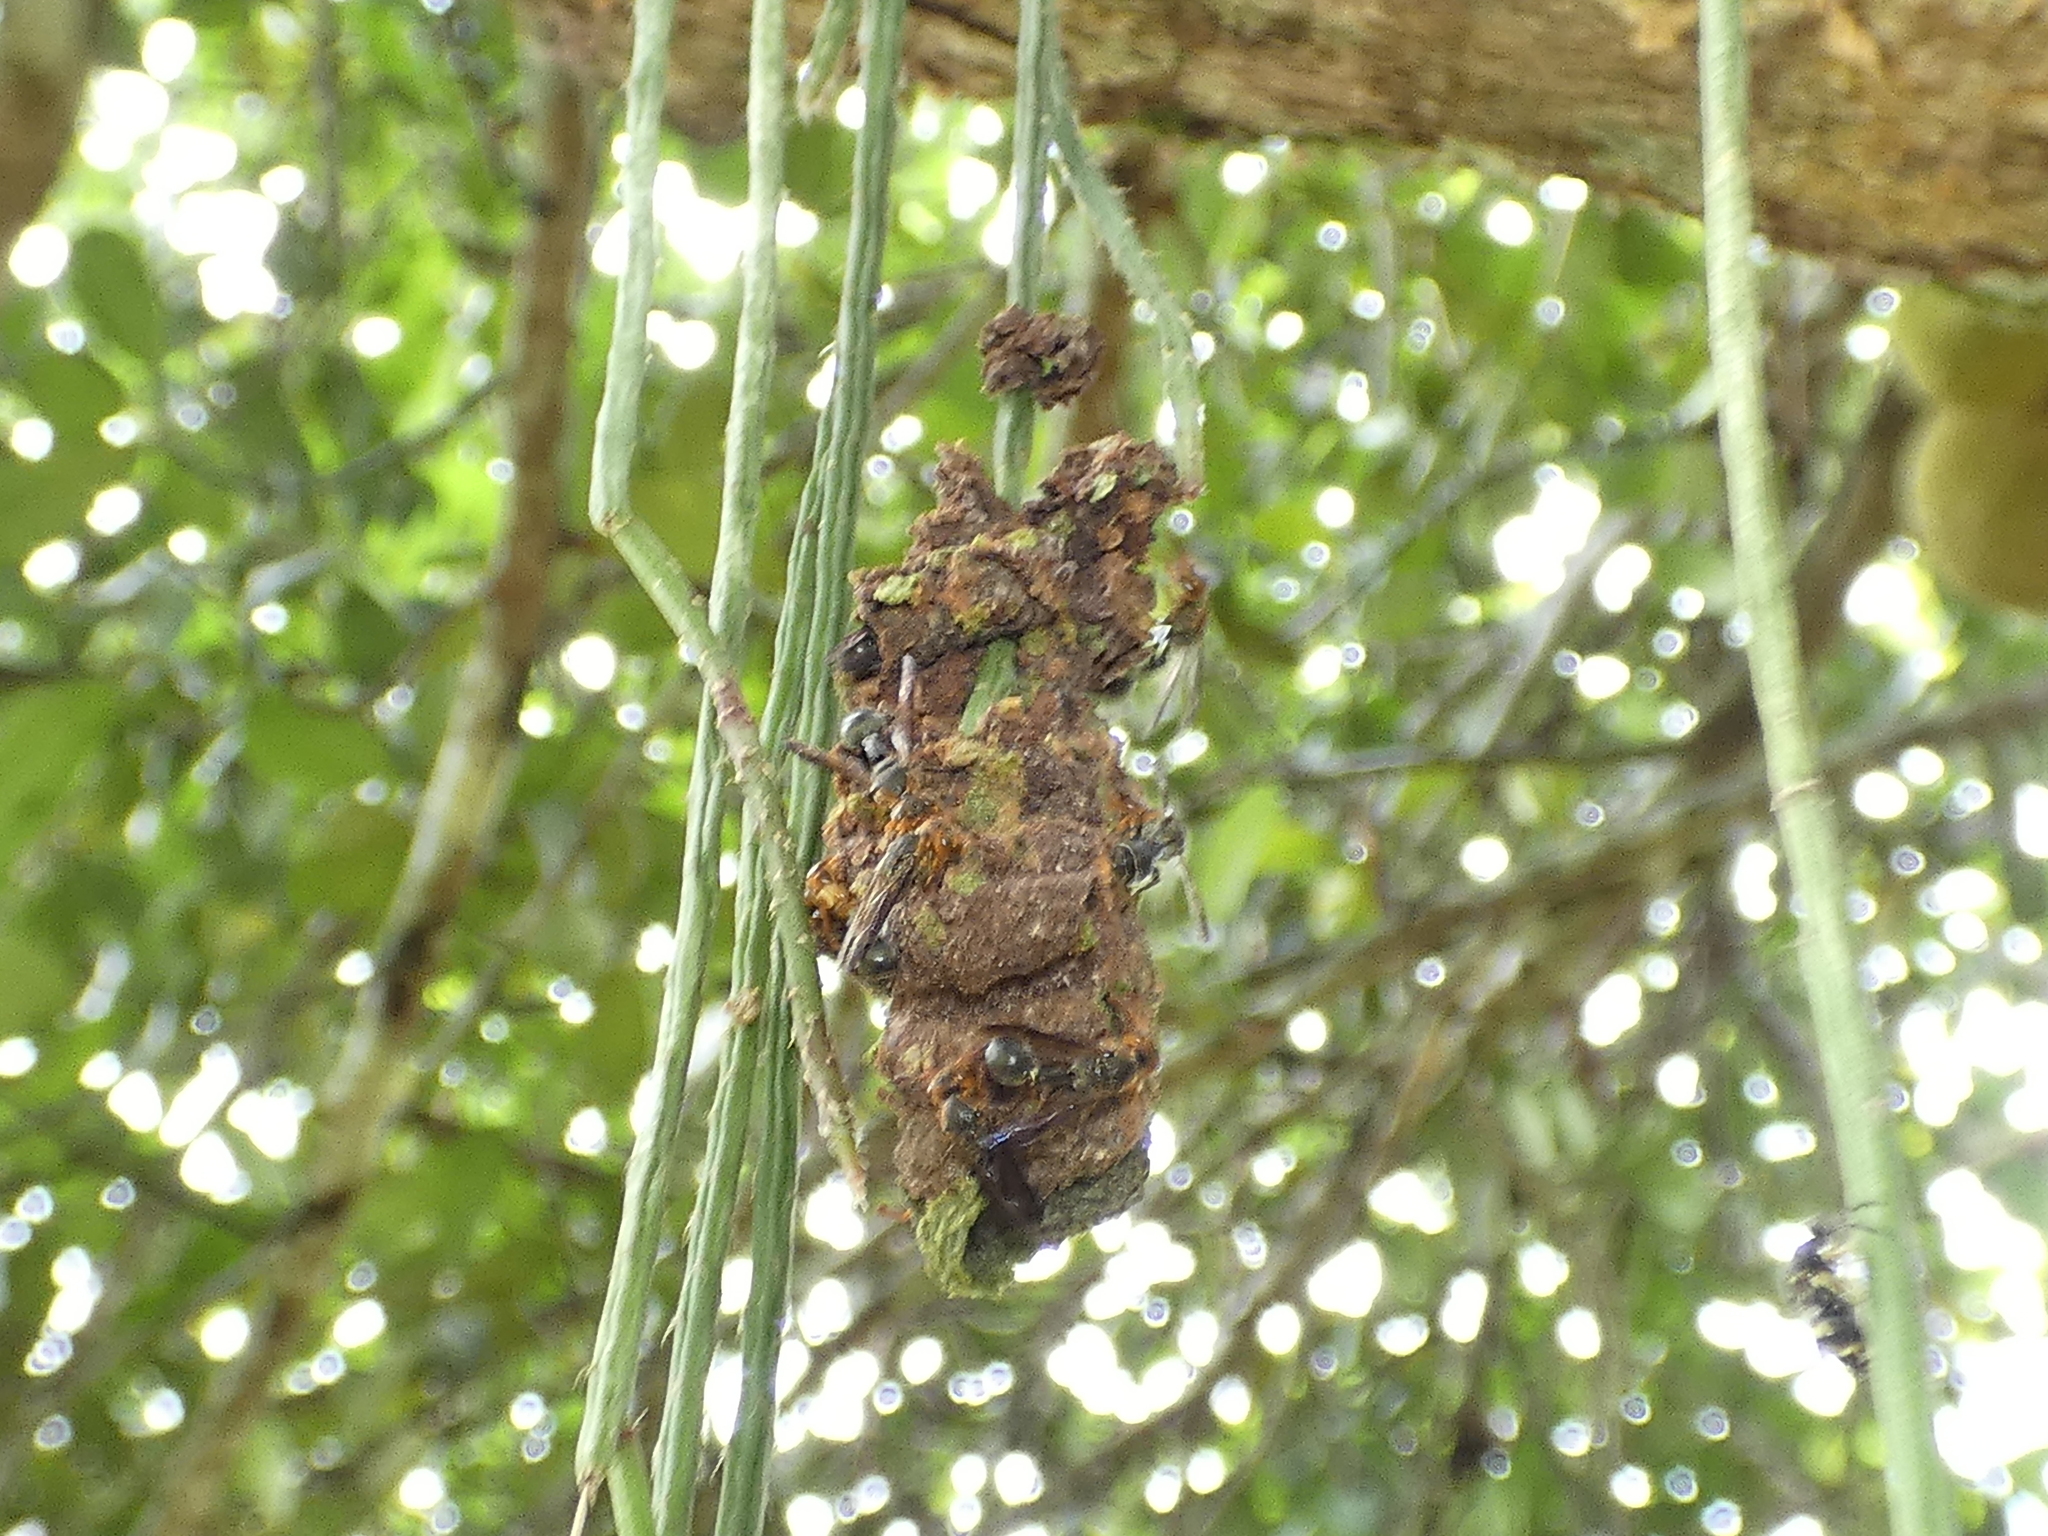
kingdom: Animalia
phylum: Arthropoda
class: Insecta
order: Hymenoptera
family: Eumenidae
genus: Zethus
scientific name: Zethus miniatus
